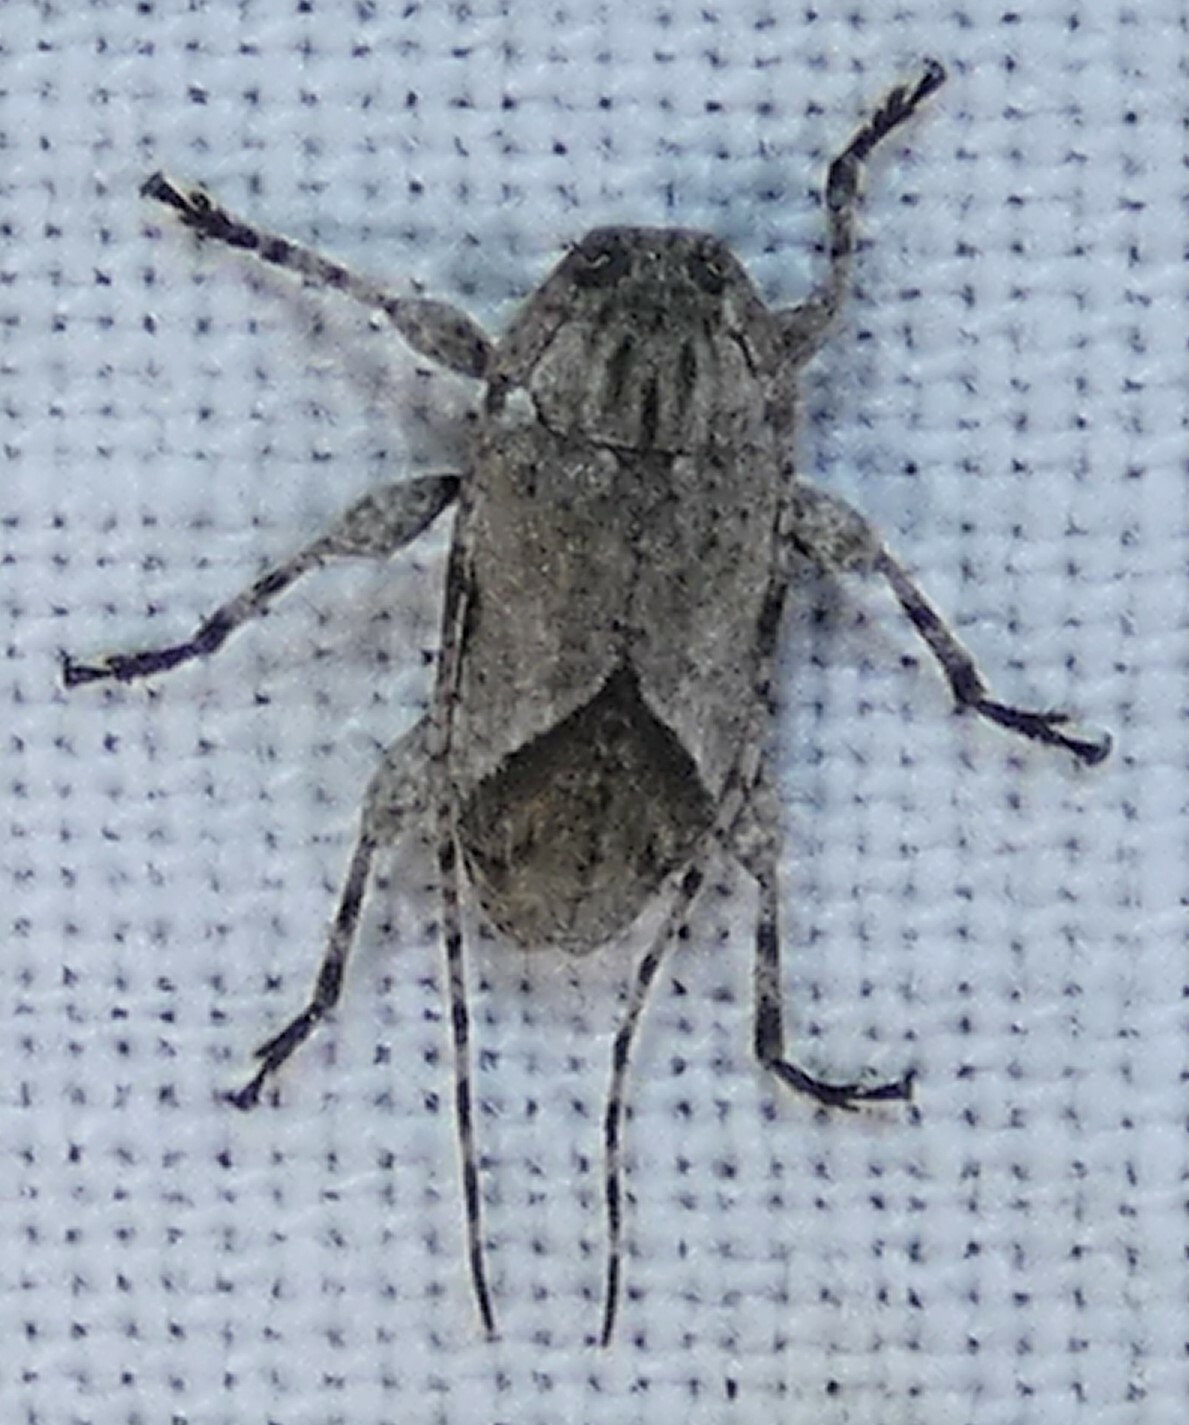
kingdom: Animalia
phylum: Arthropoda
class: Insecta
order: Coleoptera
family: Cerambycidae
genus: Styloleptus
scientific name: Styloleptus biustus
